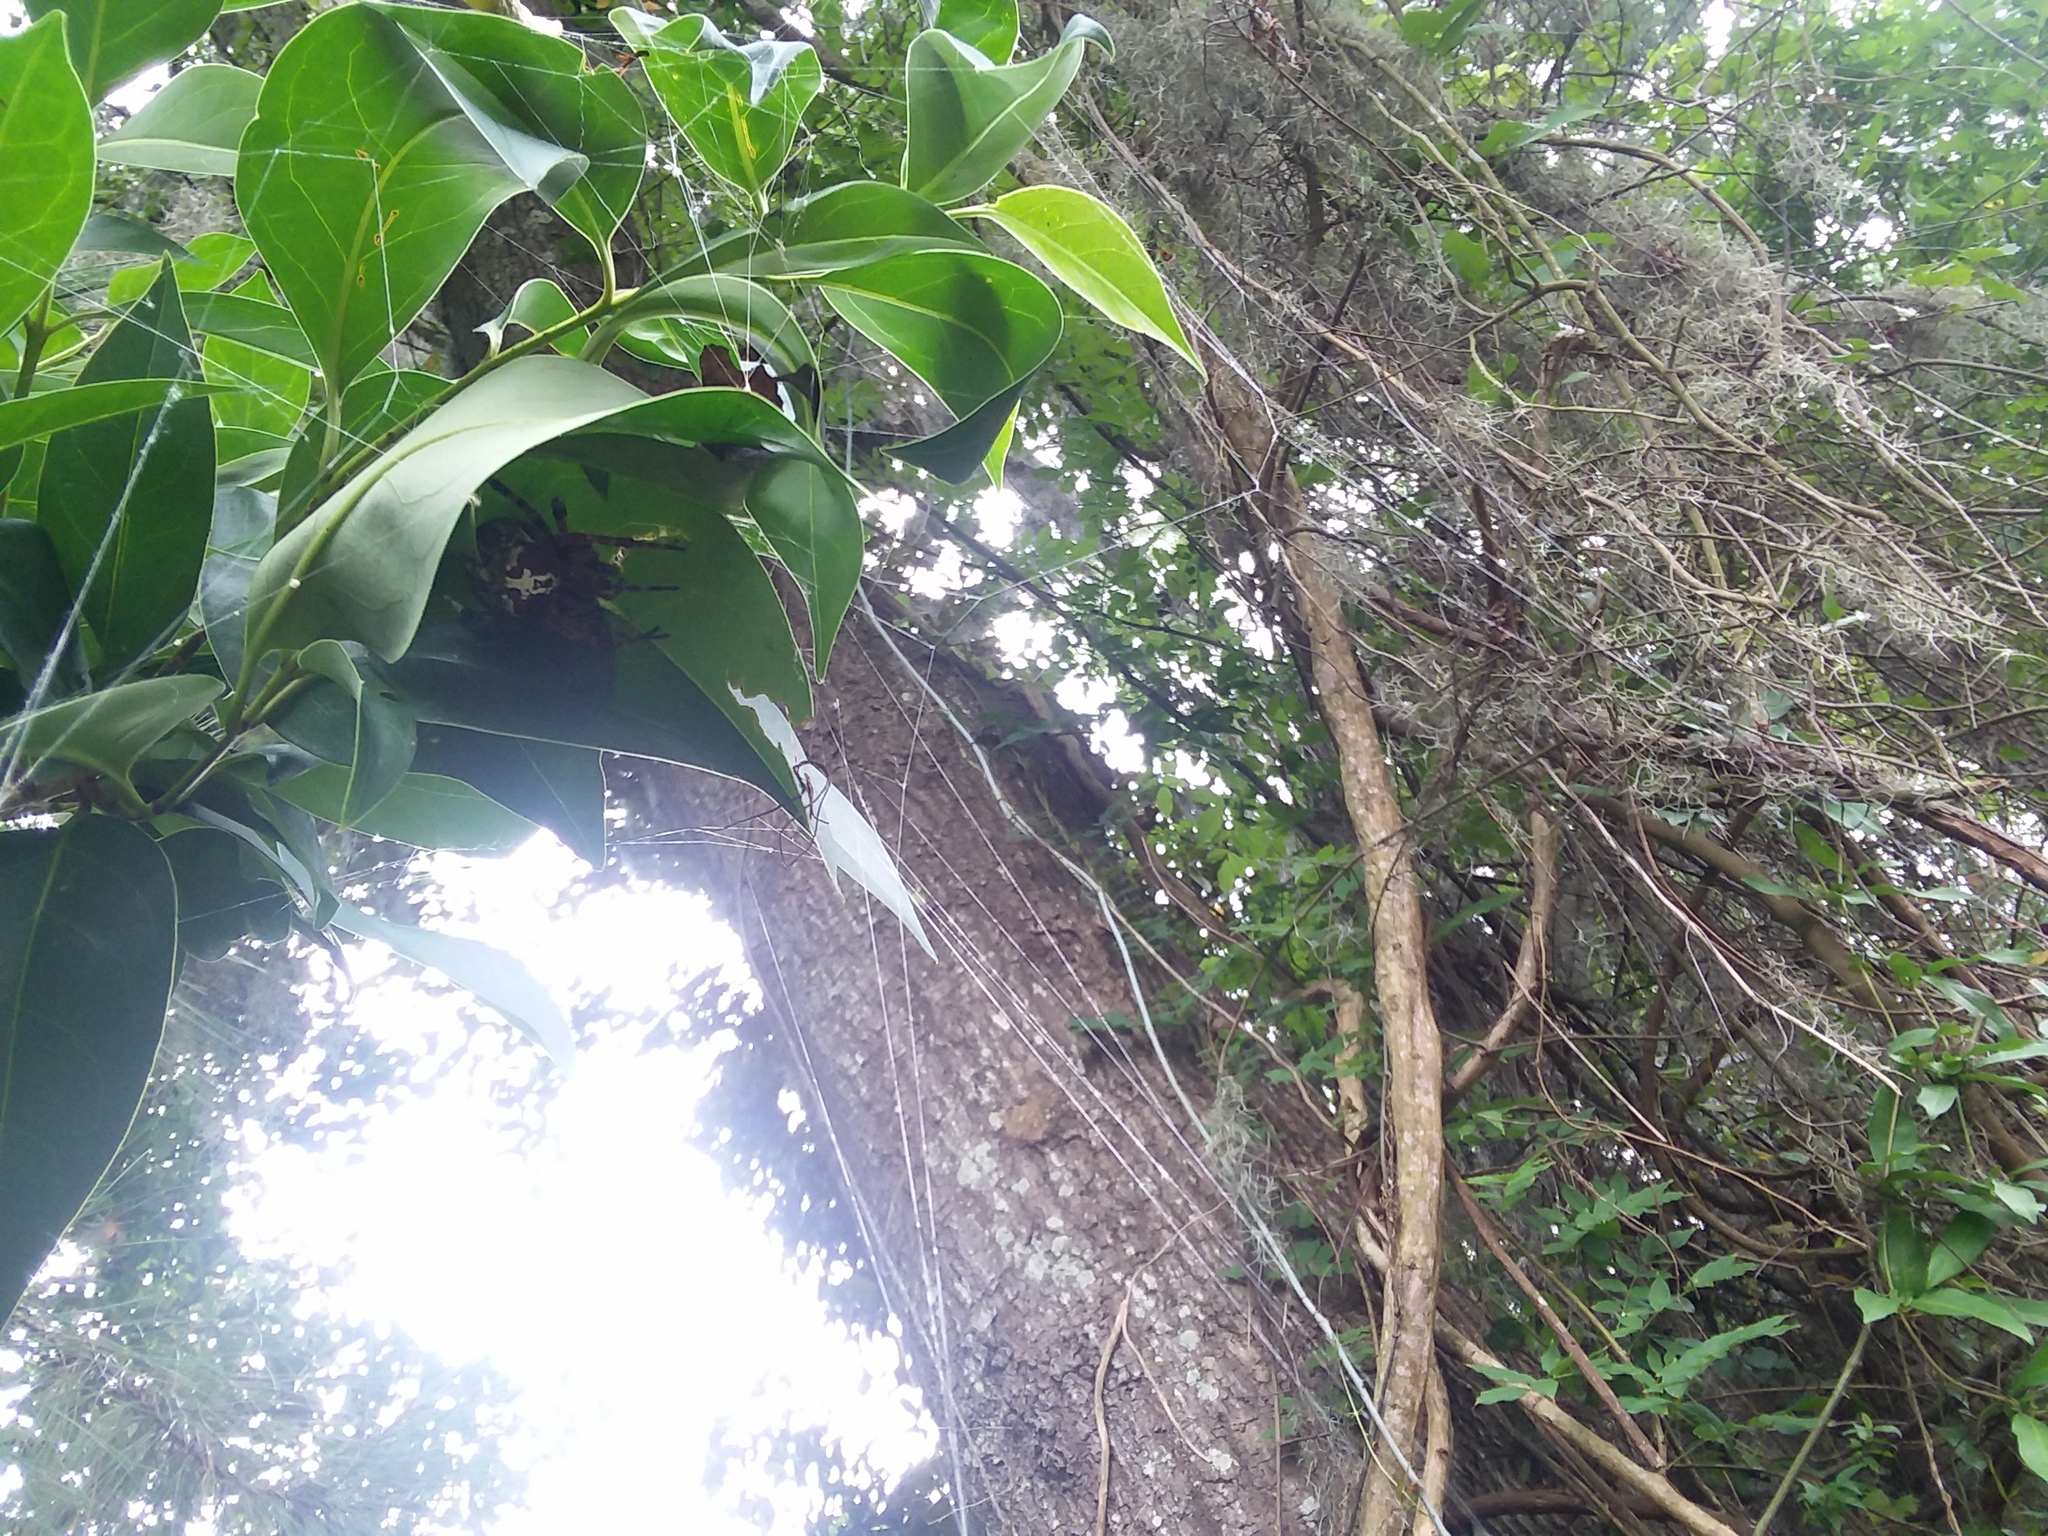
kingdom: Animalia
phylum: Arthropoda
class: Arachnida
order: Araneae
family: Araneidae
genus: Araneus
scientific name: Araneus bicentenarius
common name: Giant lichen orbweaver
